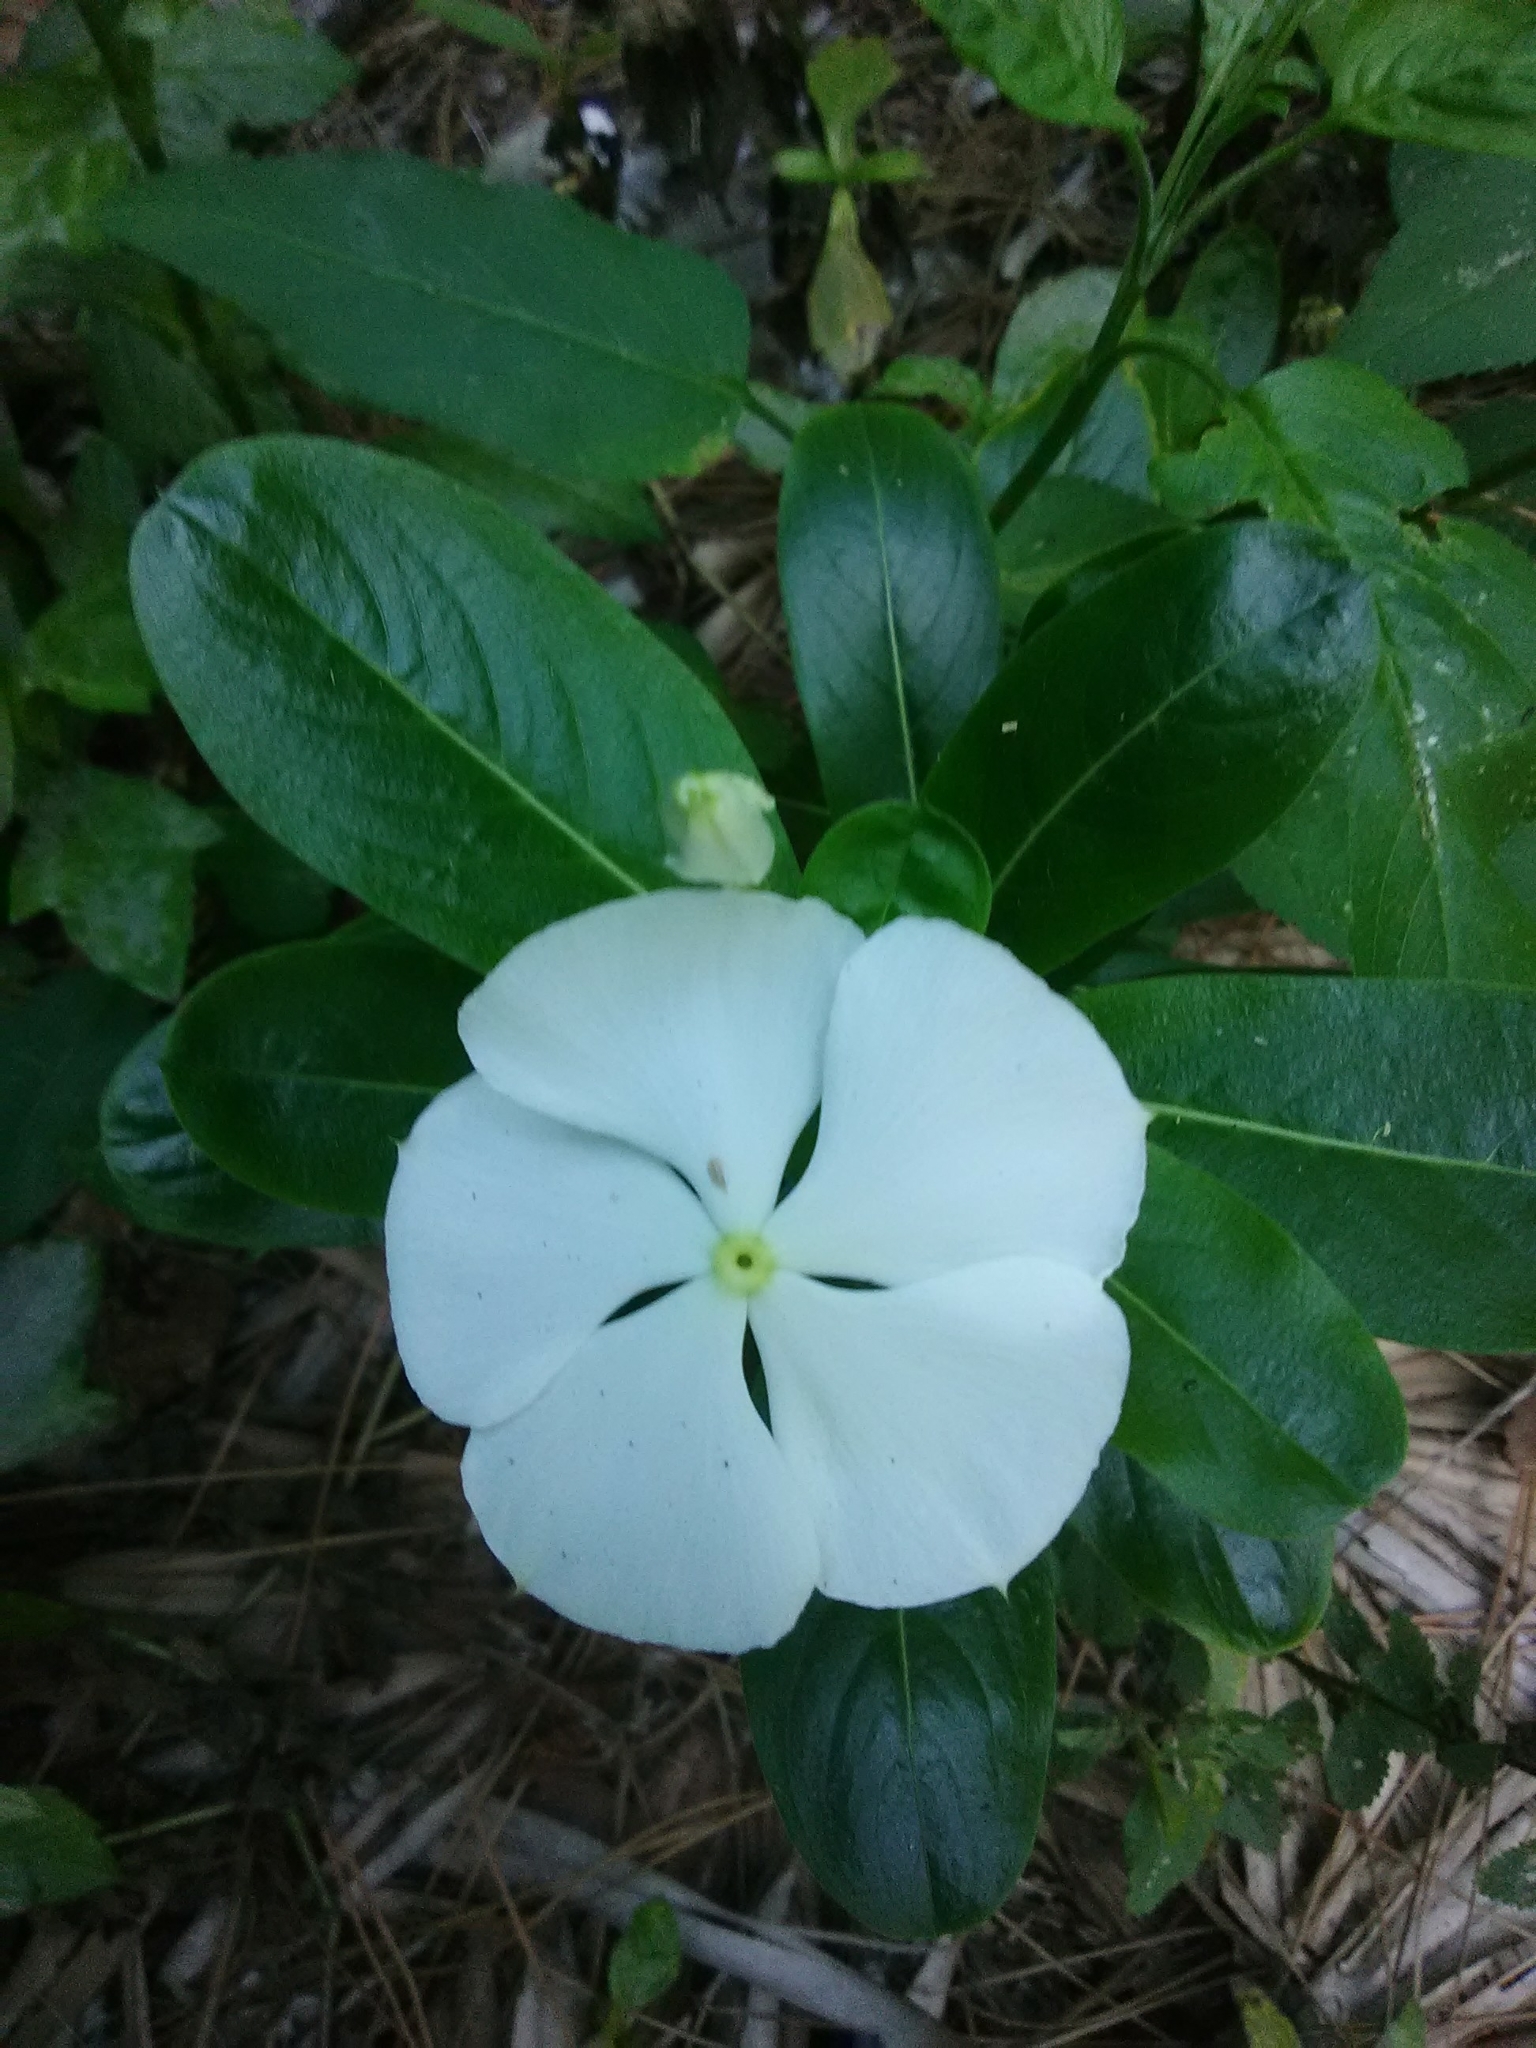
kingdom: Plantae
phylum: Tracheophyta
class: Magnoliopsida
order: Gentianales
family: Apocynaceae
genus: Catharanthus
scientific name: Catharanthus roseus
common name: Madagascar periwinkle
